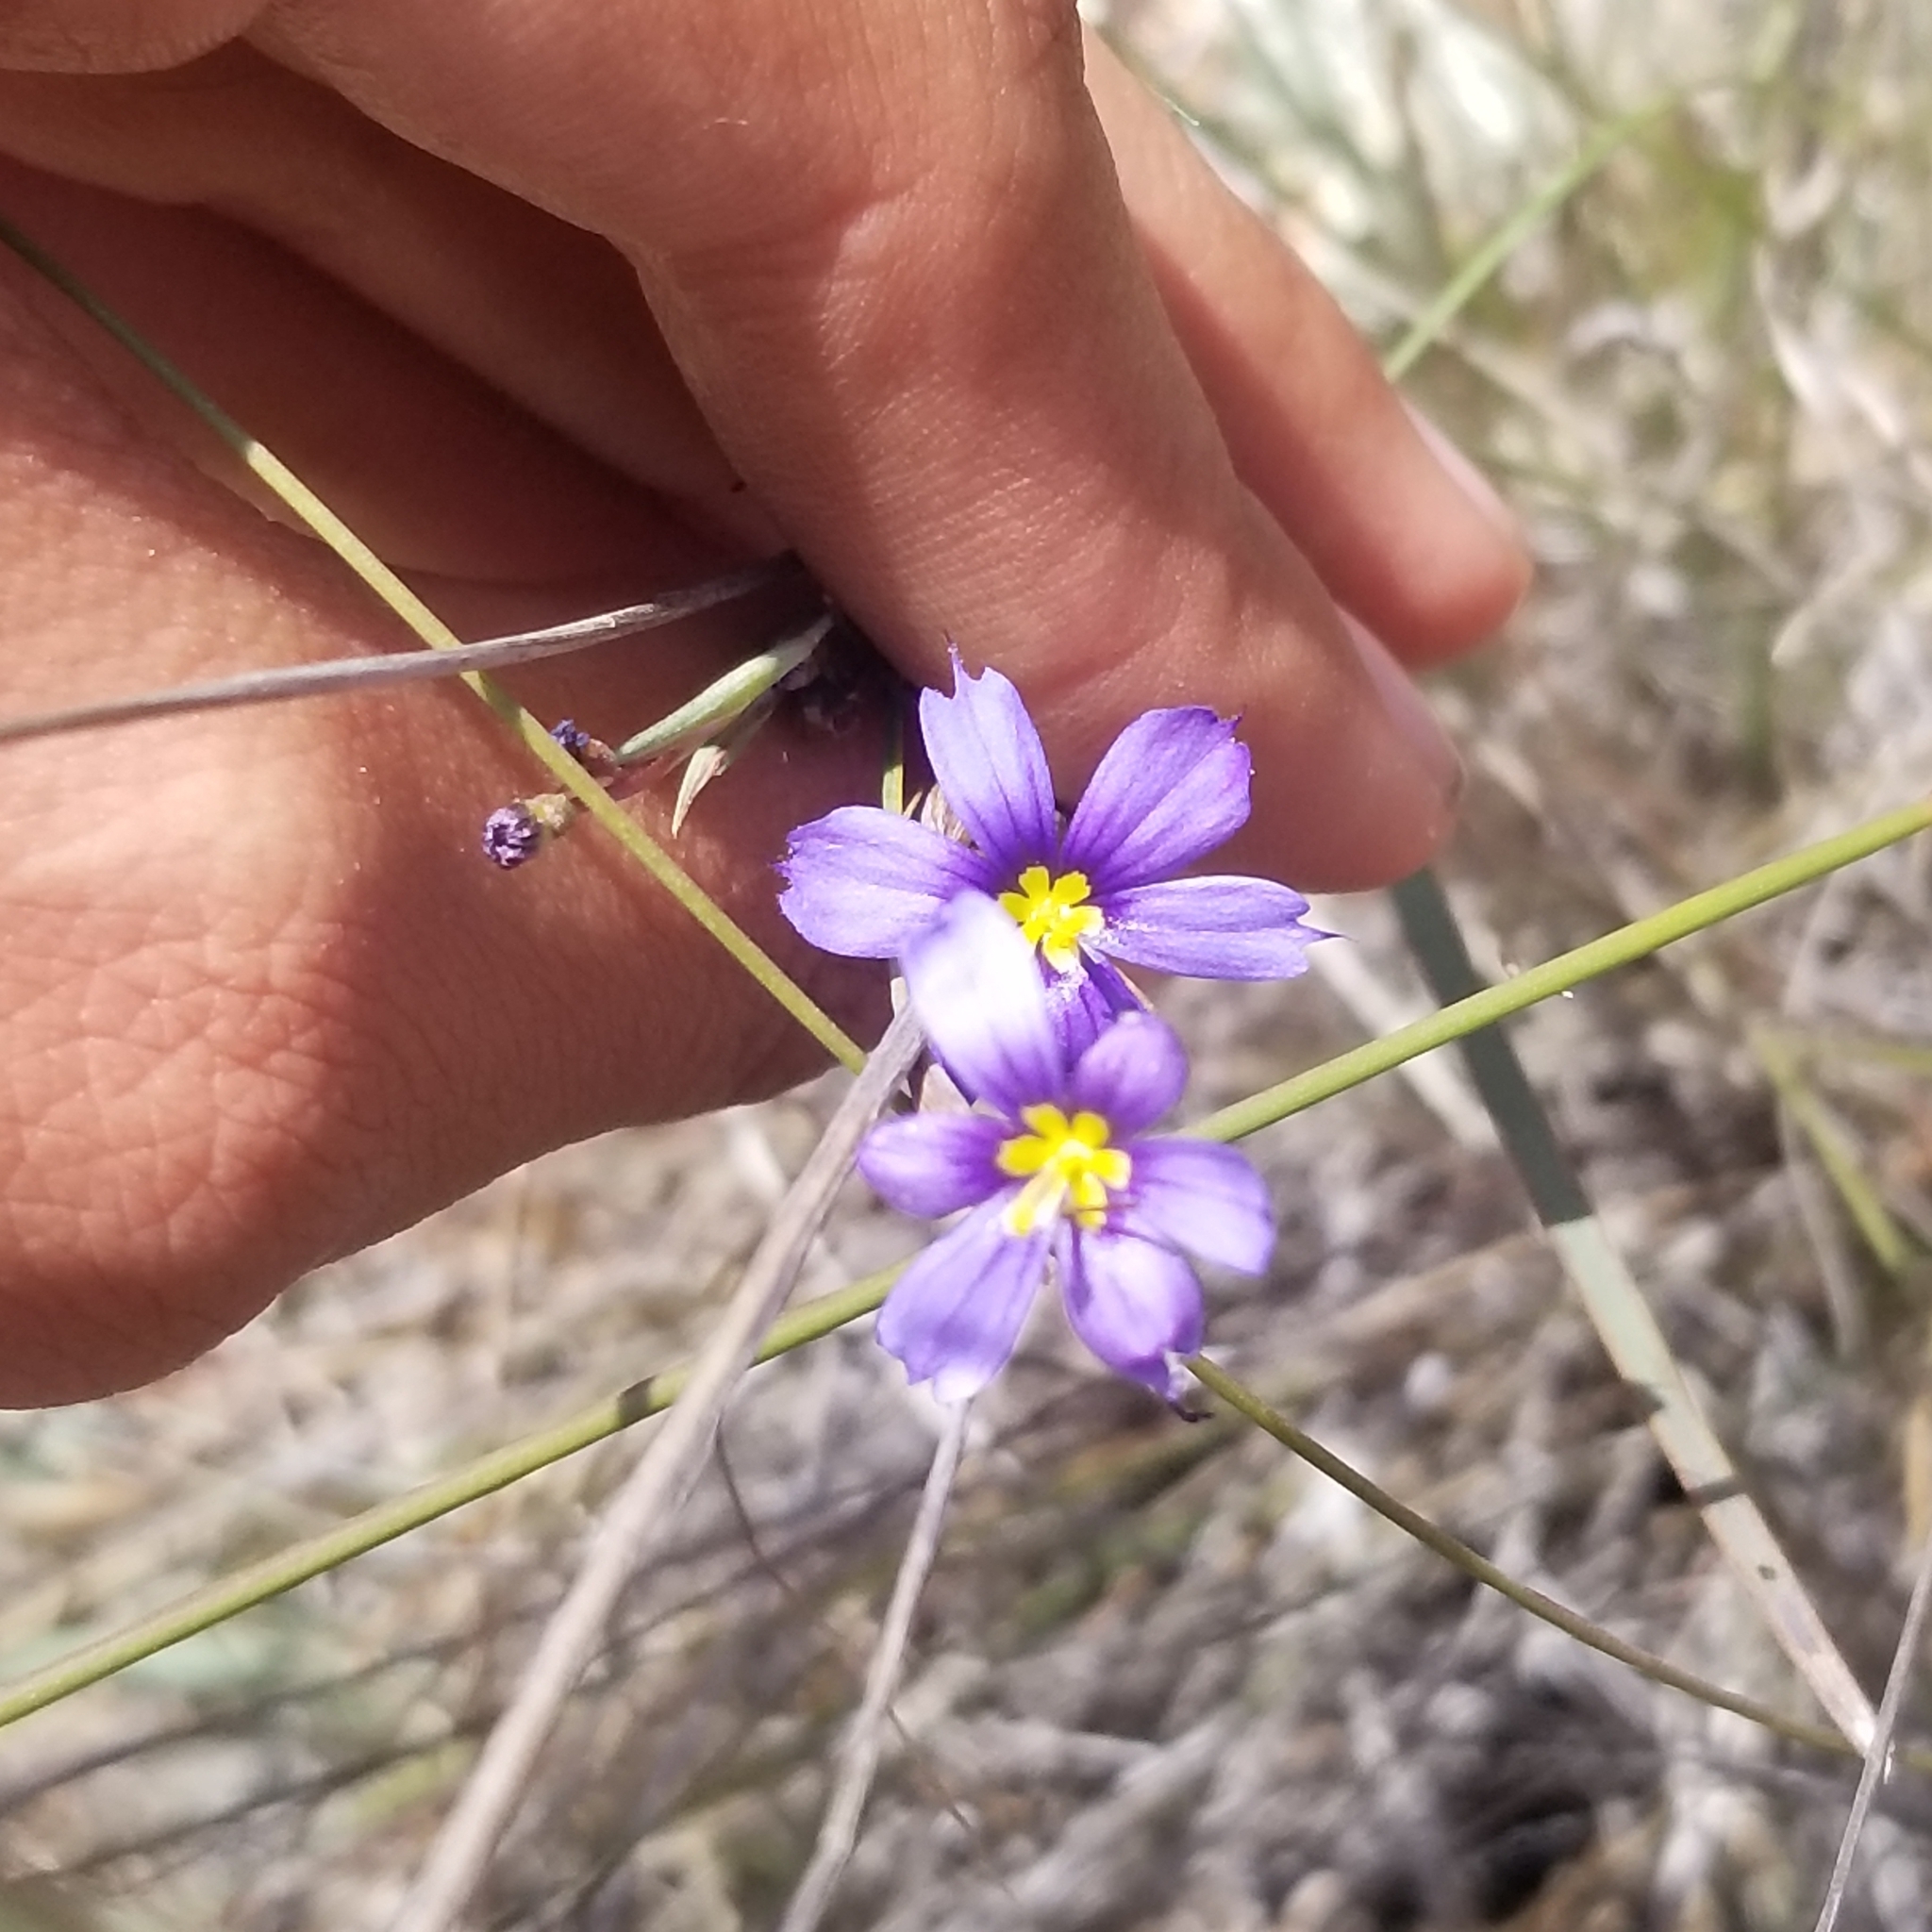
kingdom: Plantae
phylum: Tracheophyta
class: Liliopsida
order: Asparagales
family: Iridaceae
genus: Sisyrinchium
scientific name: Sisyrinchium bellum
